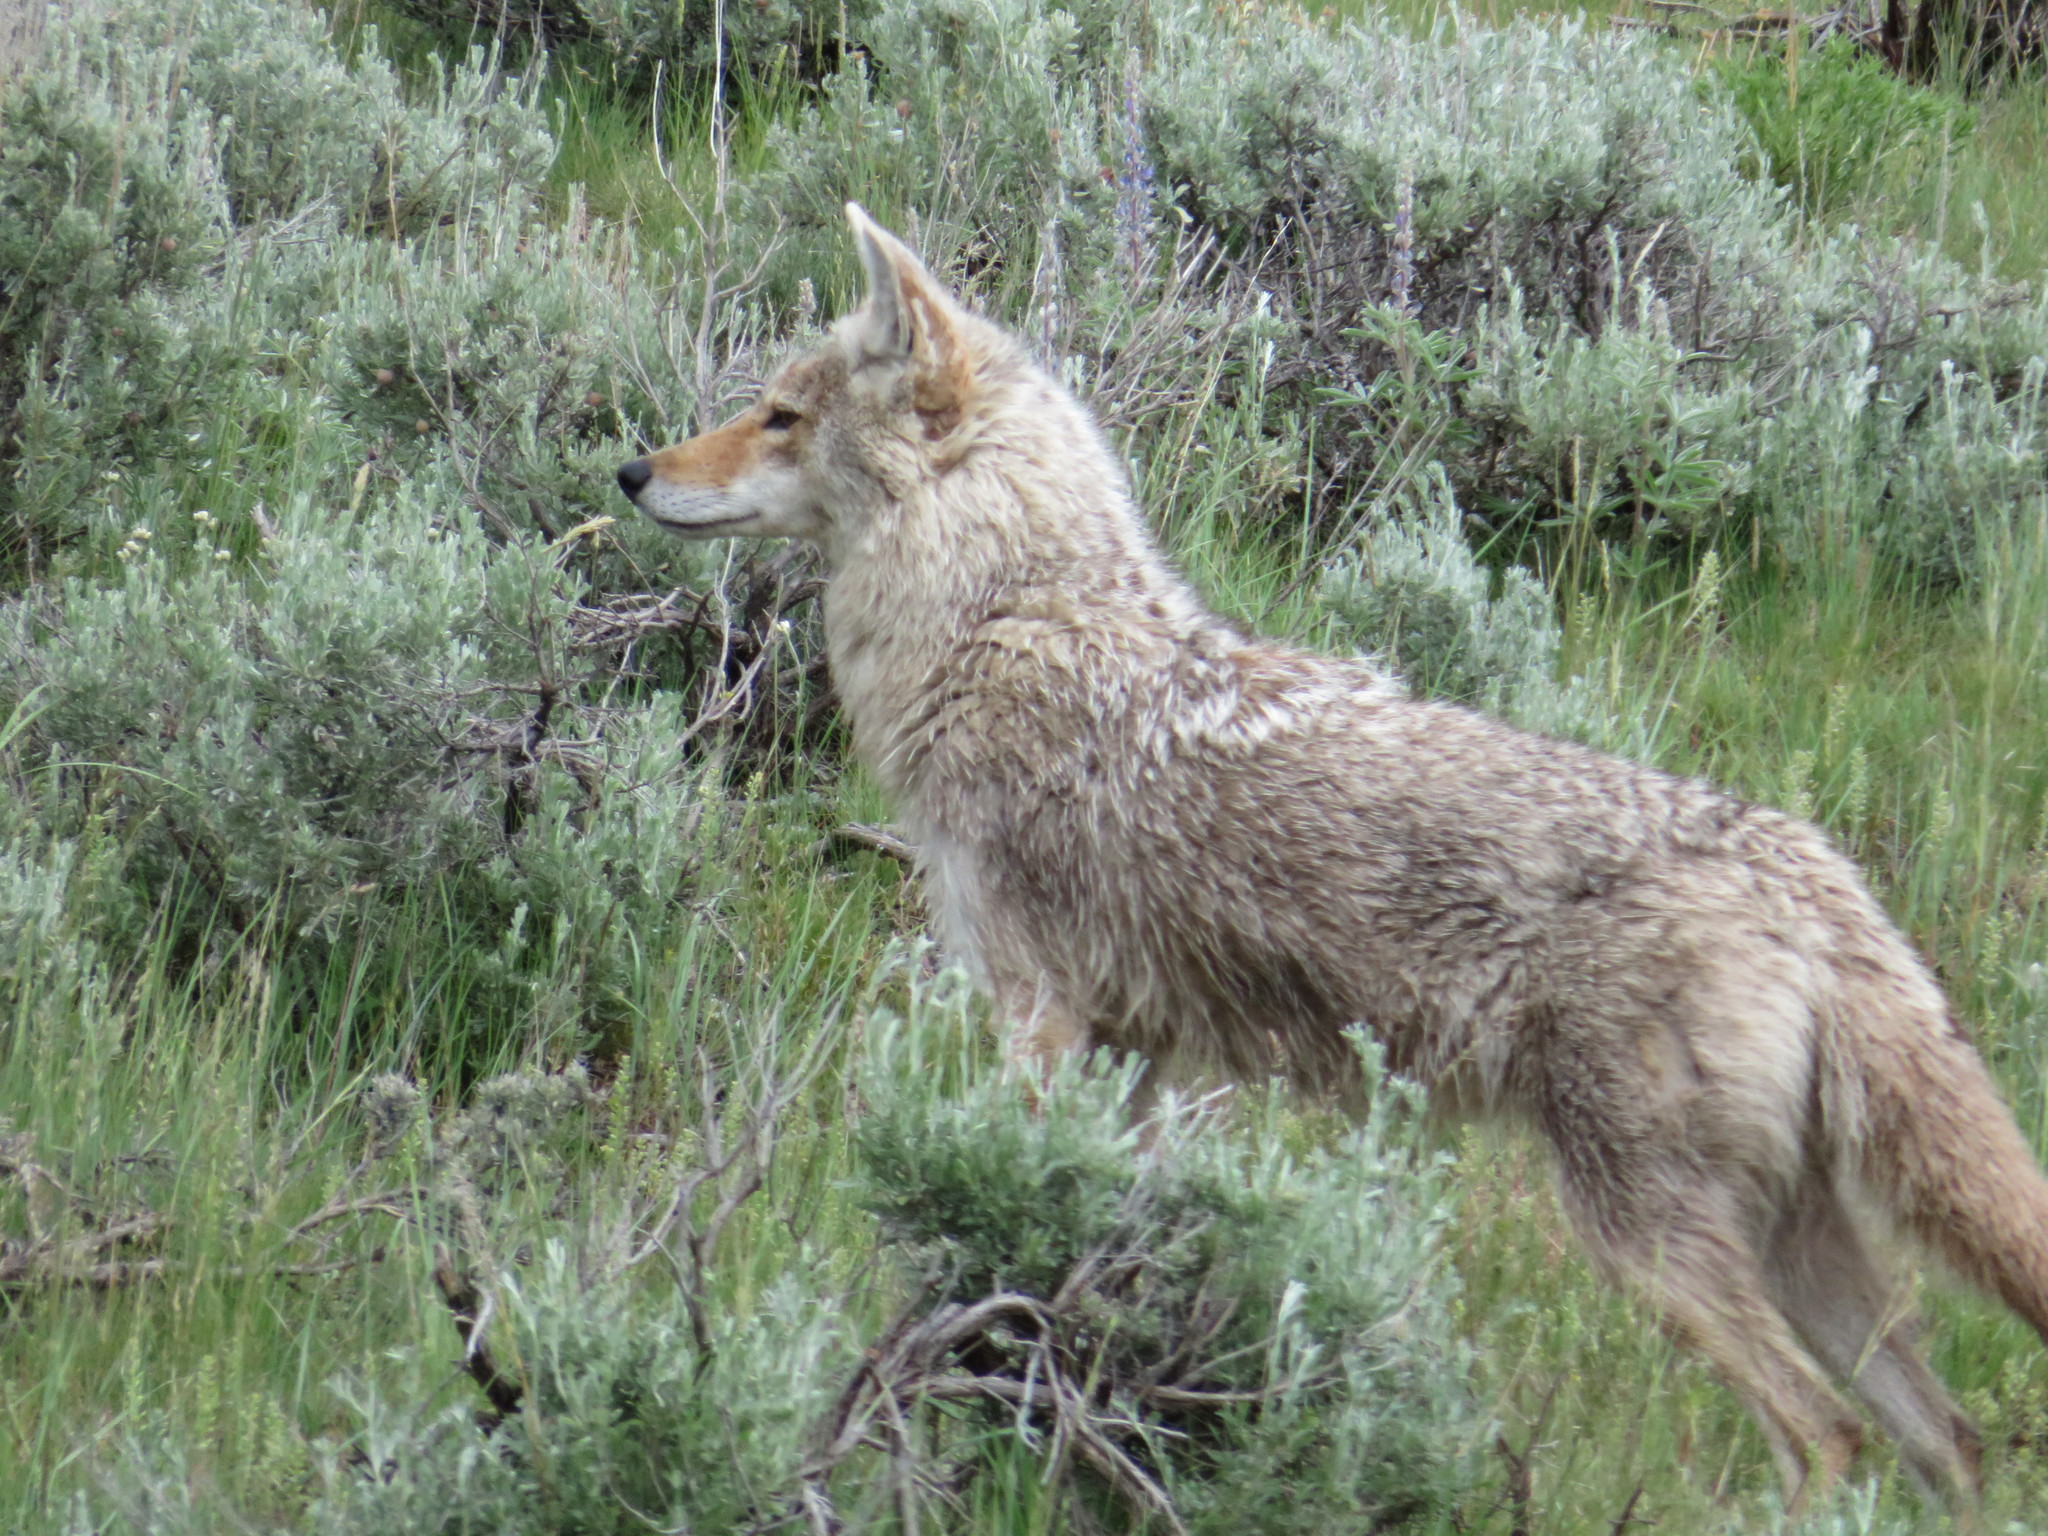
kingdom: Animalia
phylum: Chordata
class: Mammalia
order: Carnivora
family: Canidae
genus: Canis
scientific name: Canis latrans
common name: Coyote
